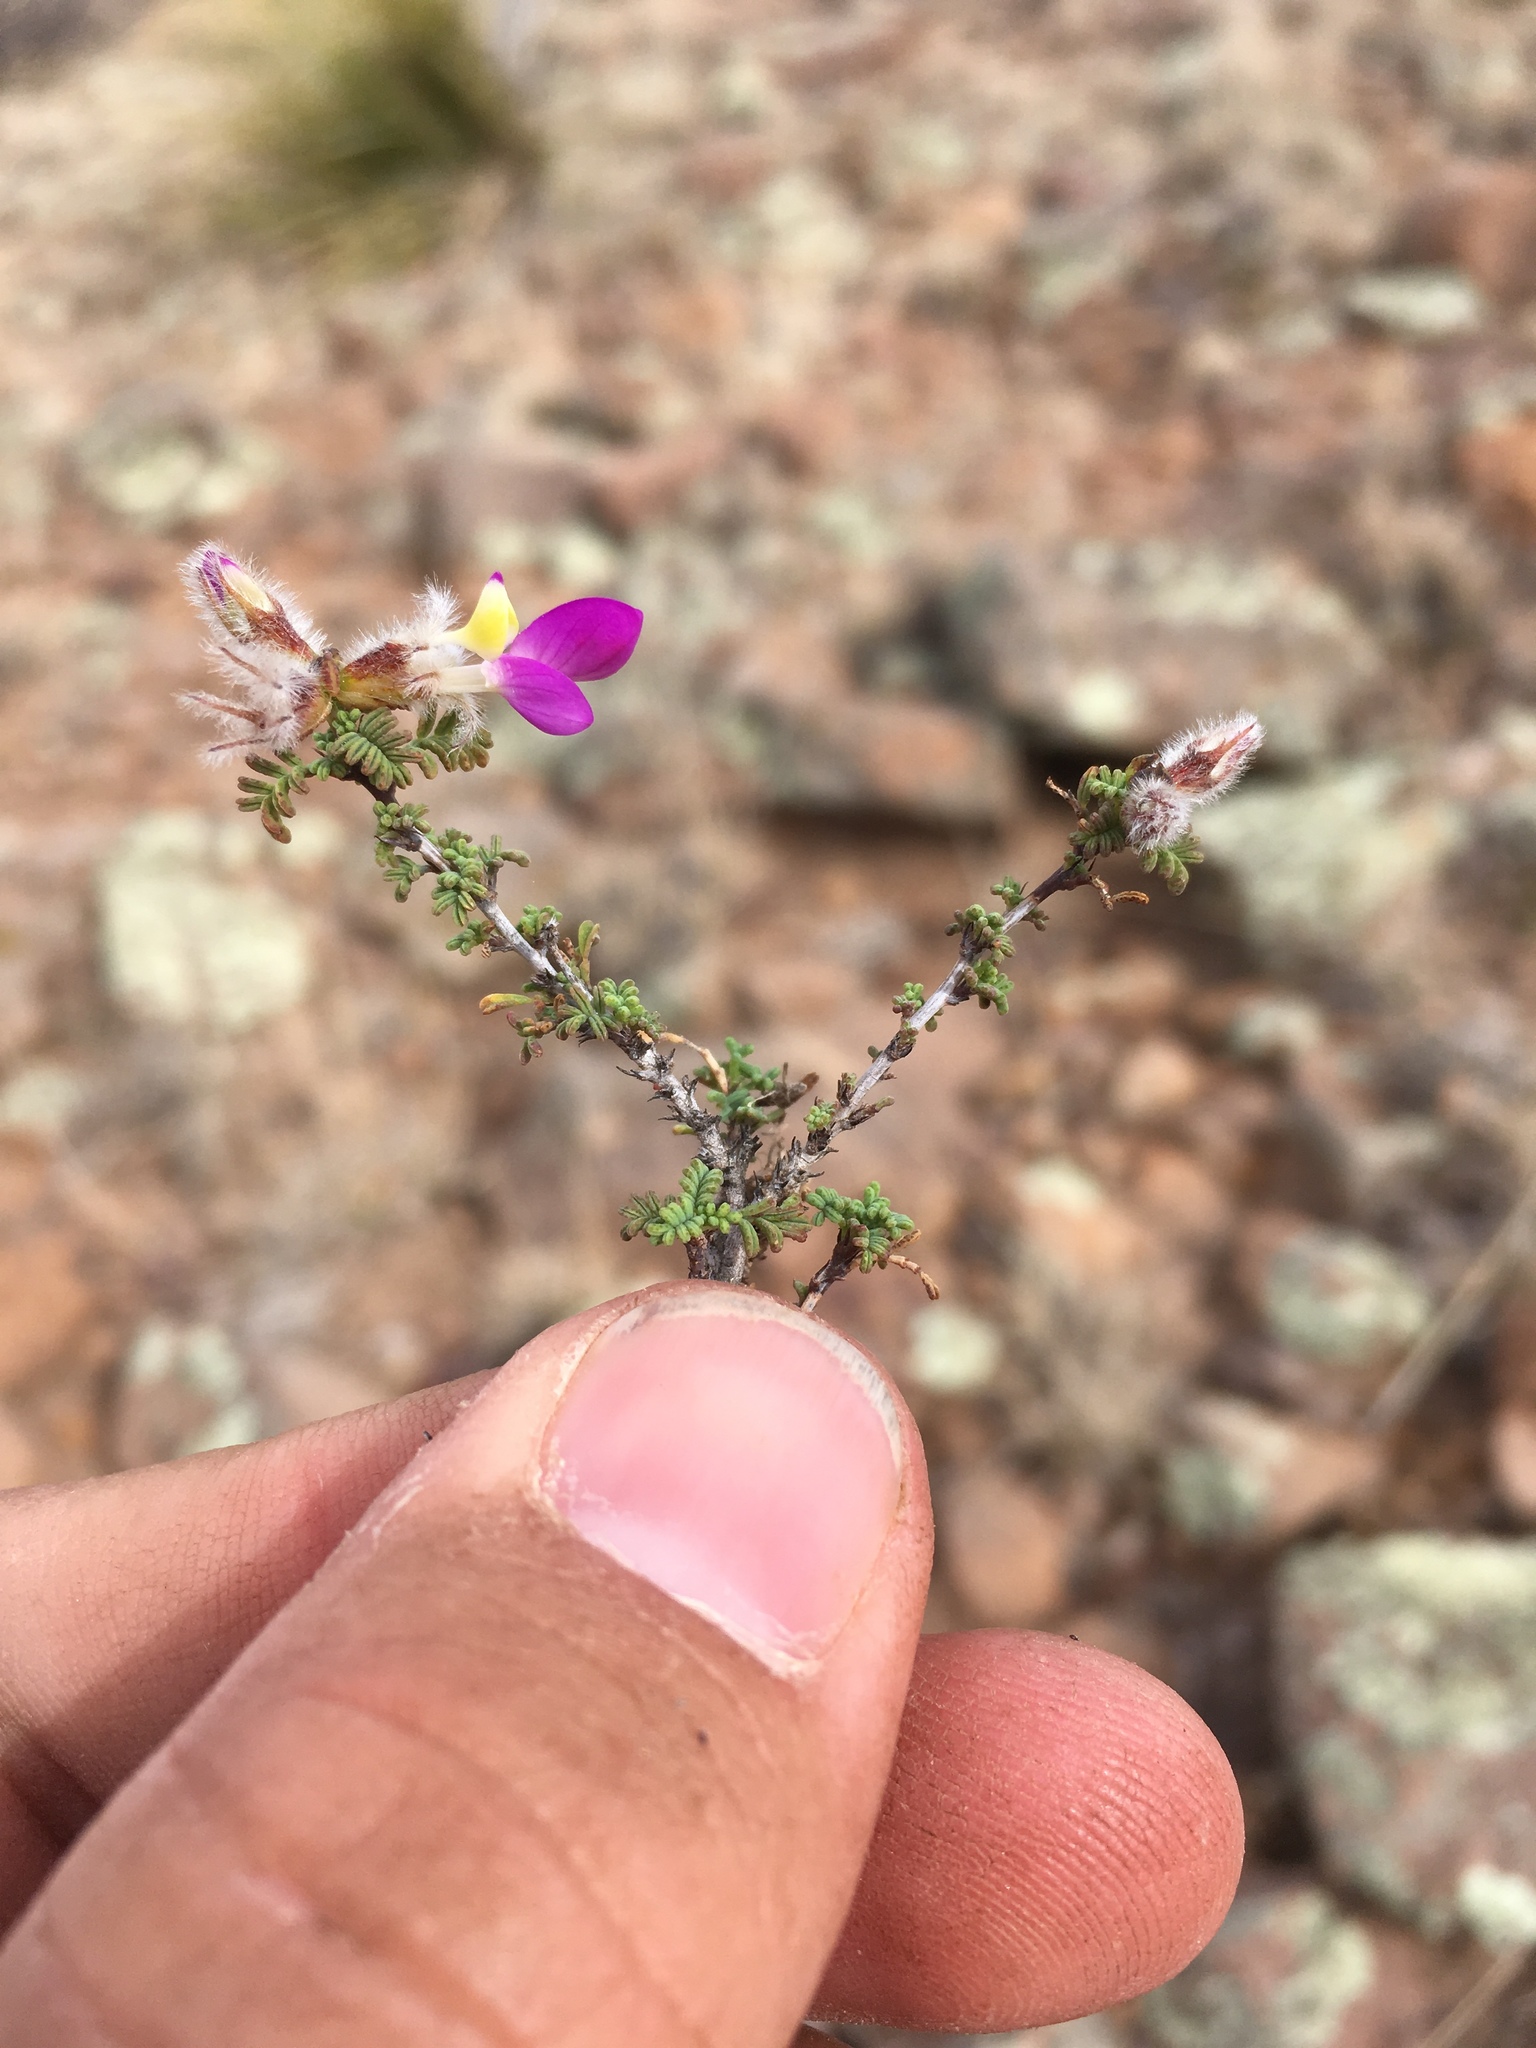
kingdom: Plantae
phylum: Tracheophyta
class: Magnoliopsida
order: Fabales
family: Fabaceae
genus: Dalea
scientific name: Dalea formosa
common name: Feather-plume dalea
